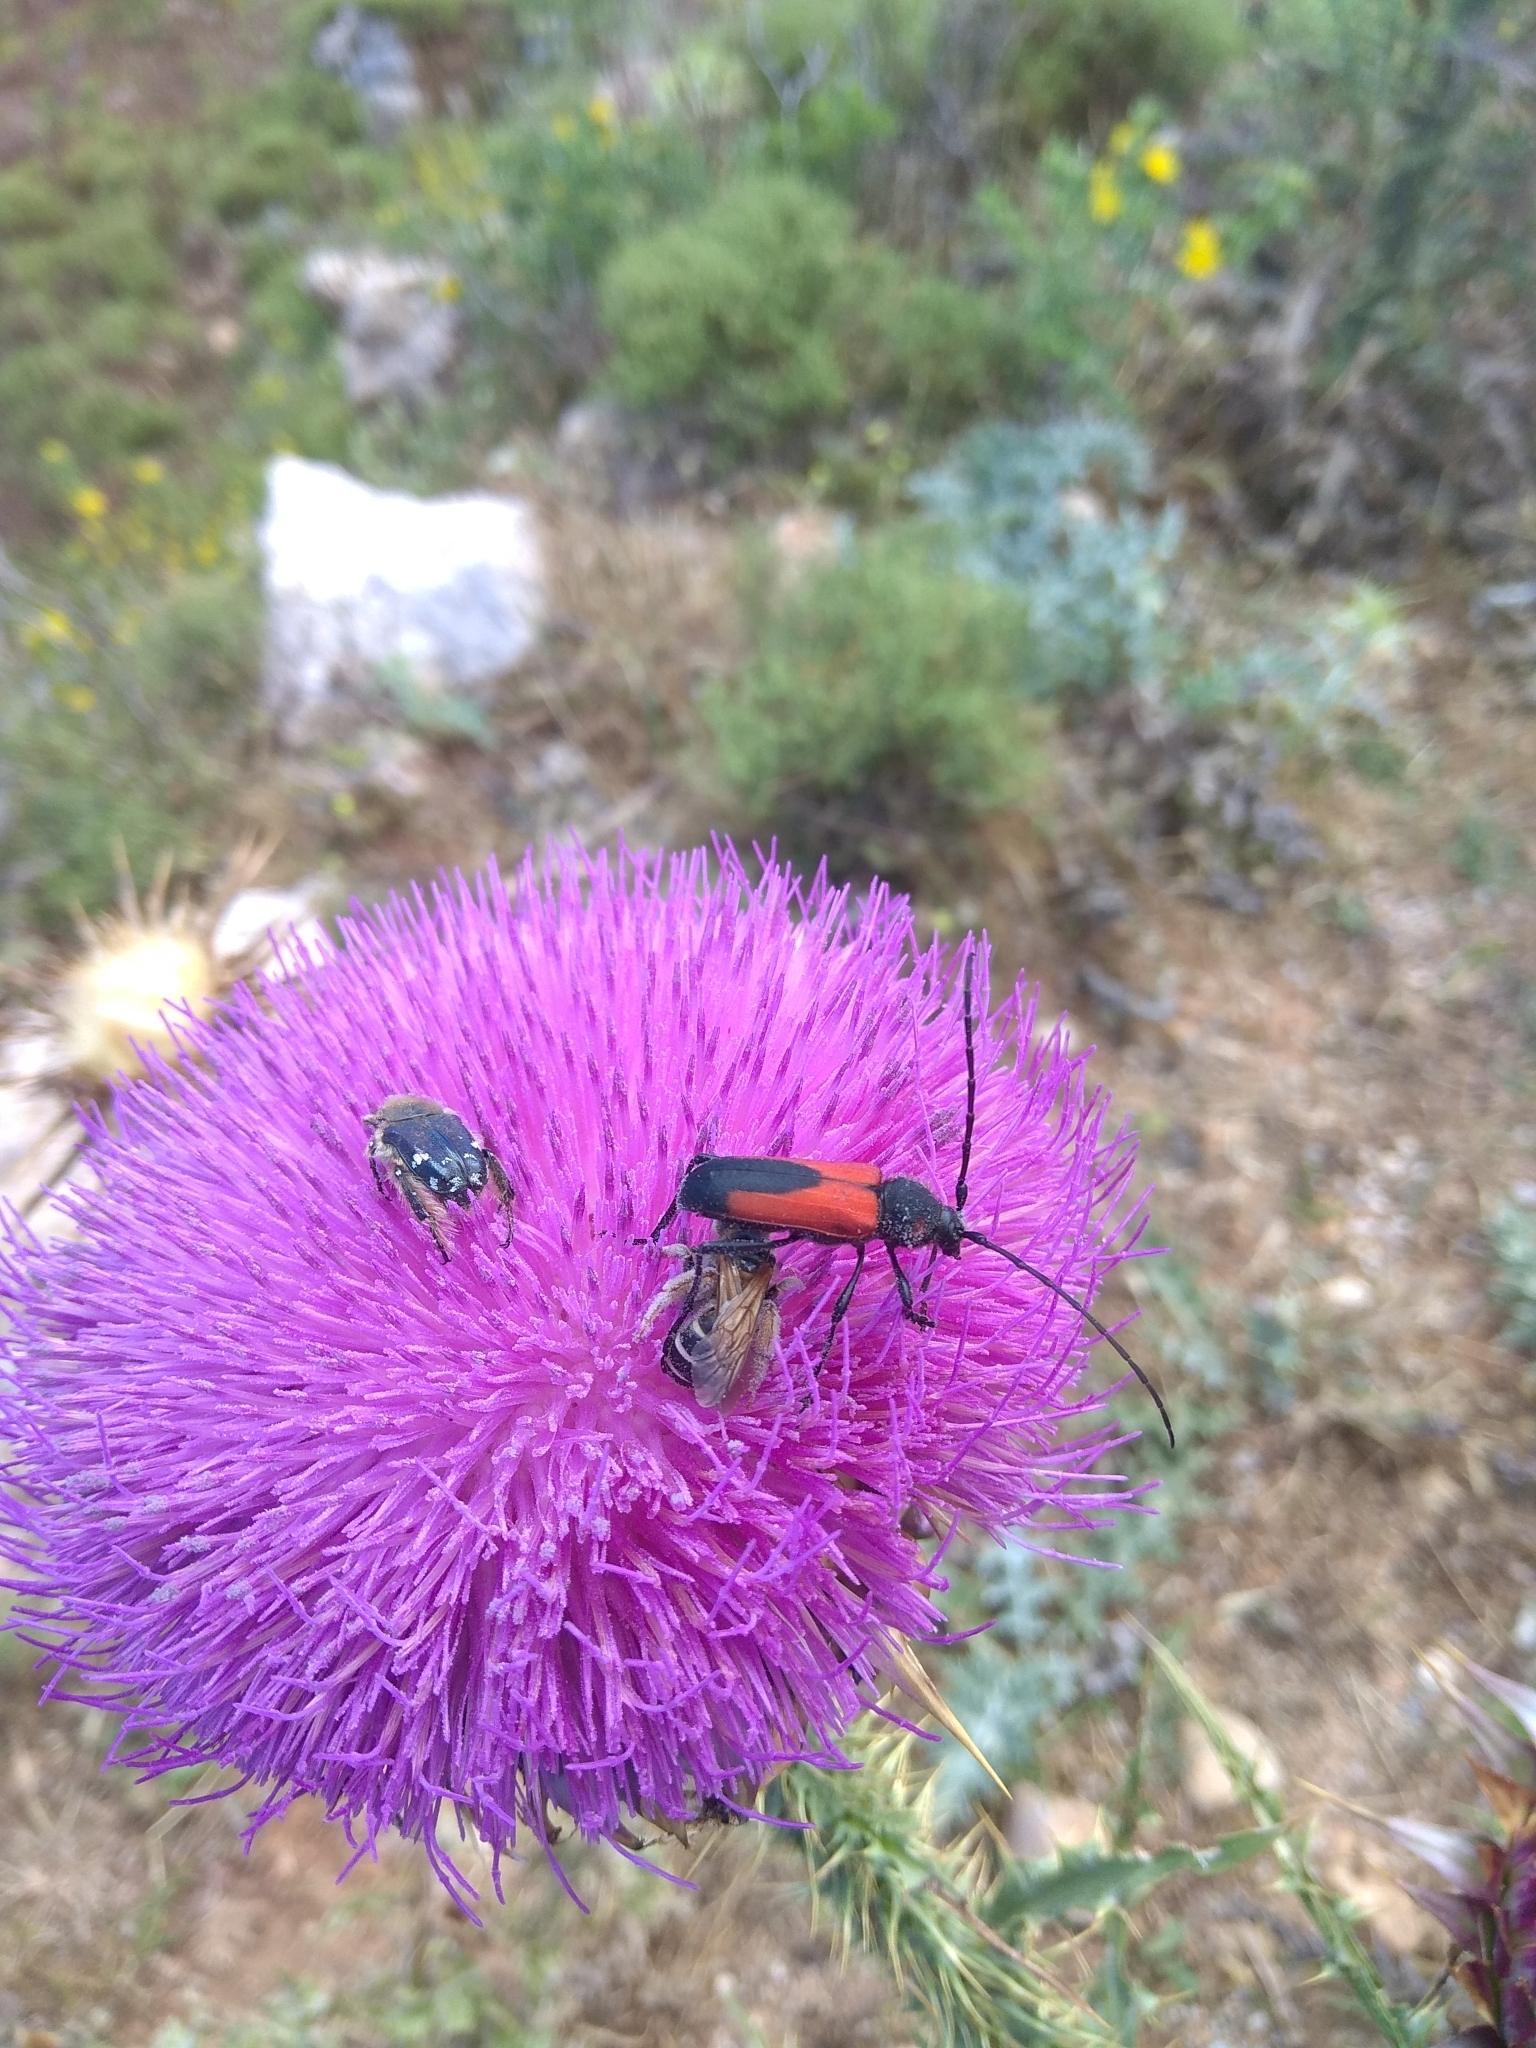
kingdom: Animalia
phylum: Arthropoda
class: Insecta
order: Coleoptera
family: Cerambycidae
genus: Purpuricenus
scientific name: Purpuricenus budensis
